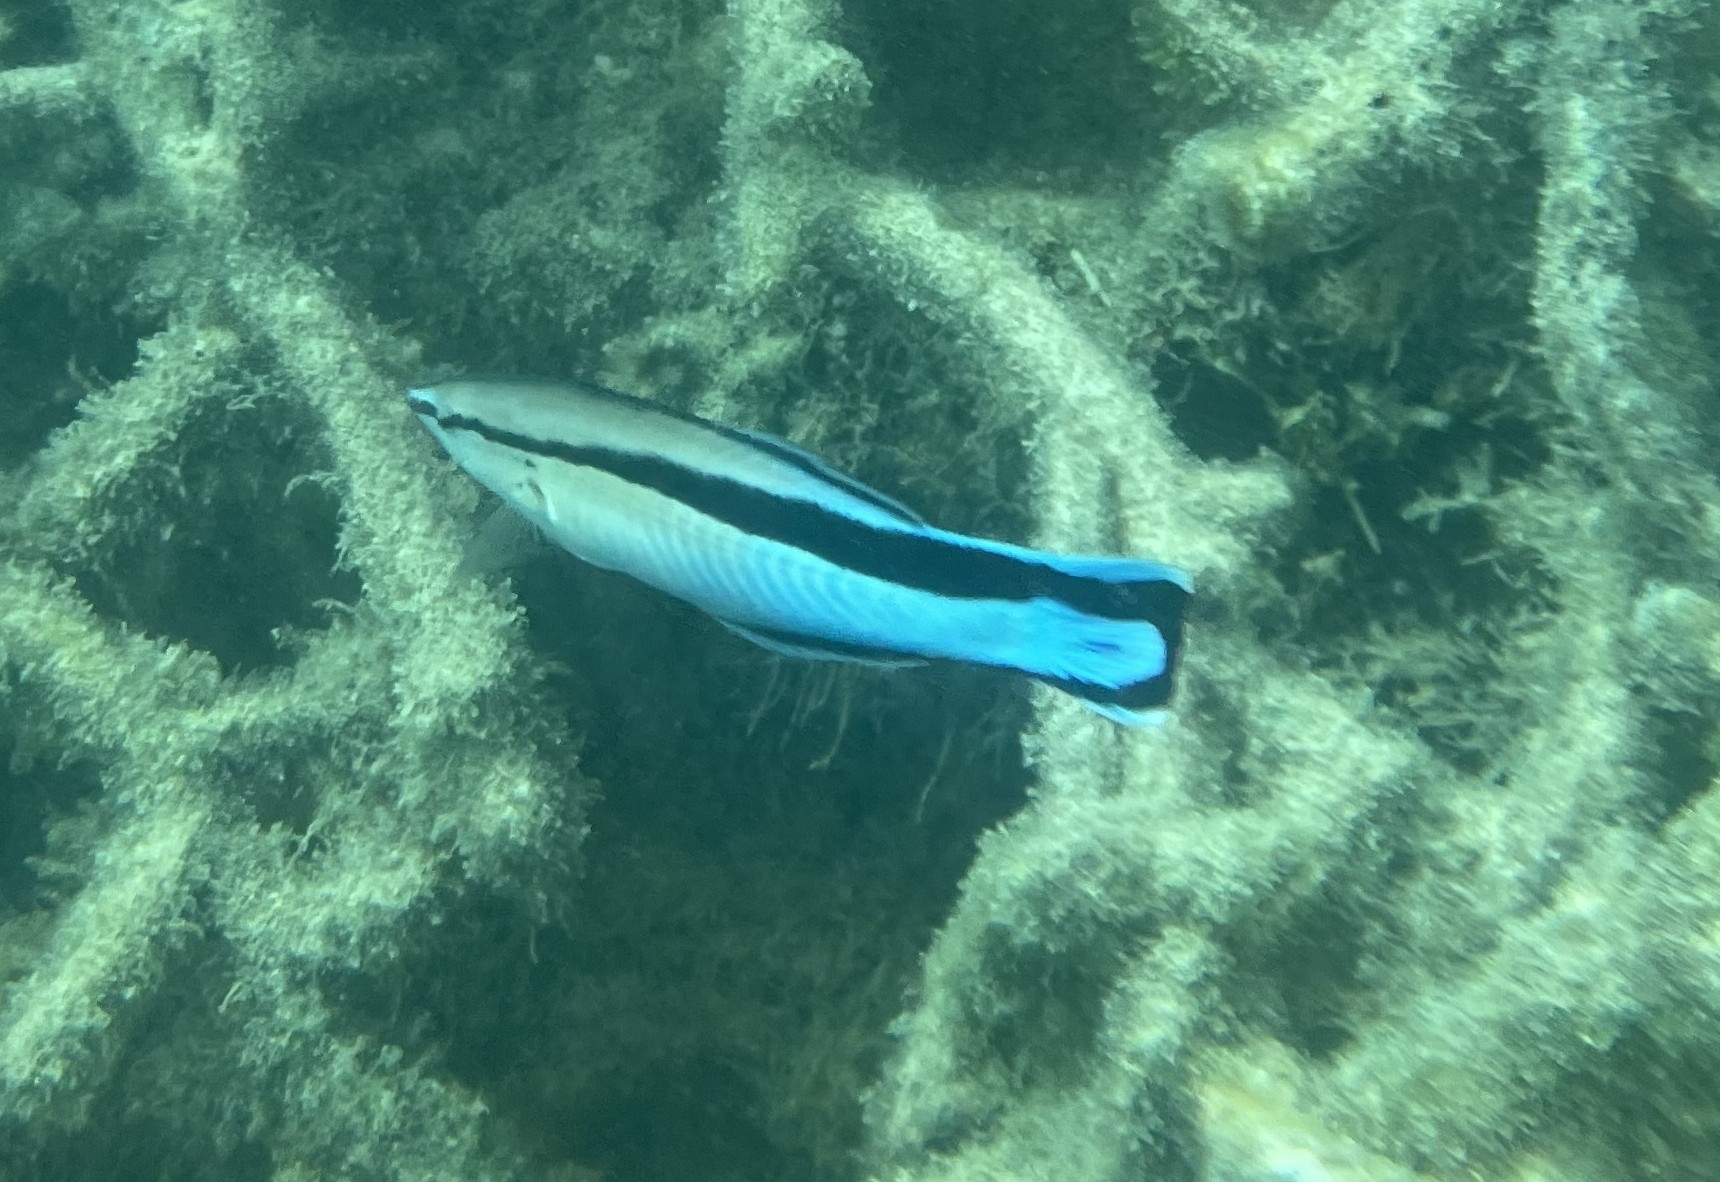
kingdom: Animalia
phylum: Chordata
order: Perciformes
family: Labridae
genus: Labroides
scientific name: Labroides dimidiatus
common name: Blue diesel wrasse
